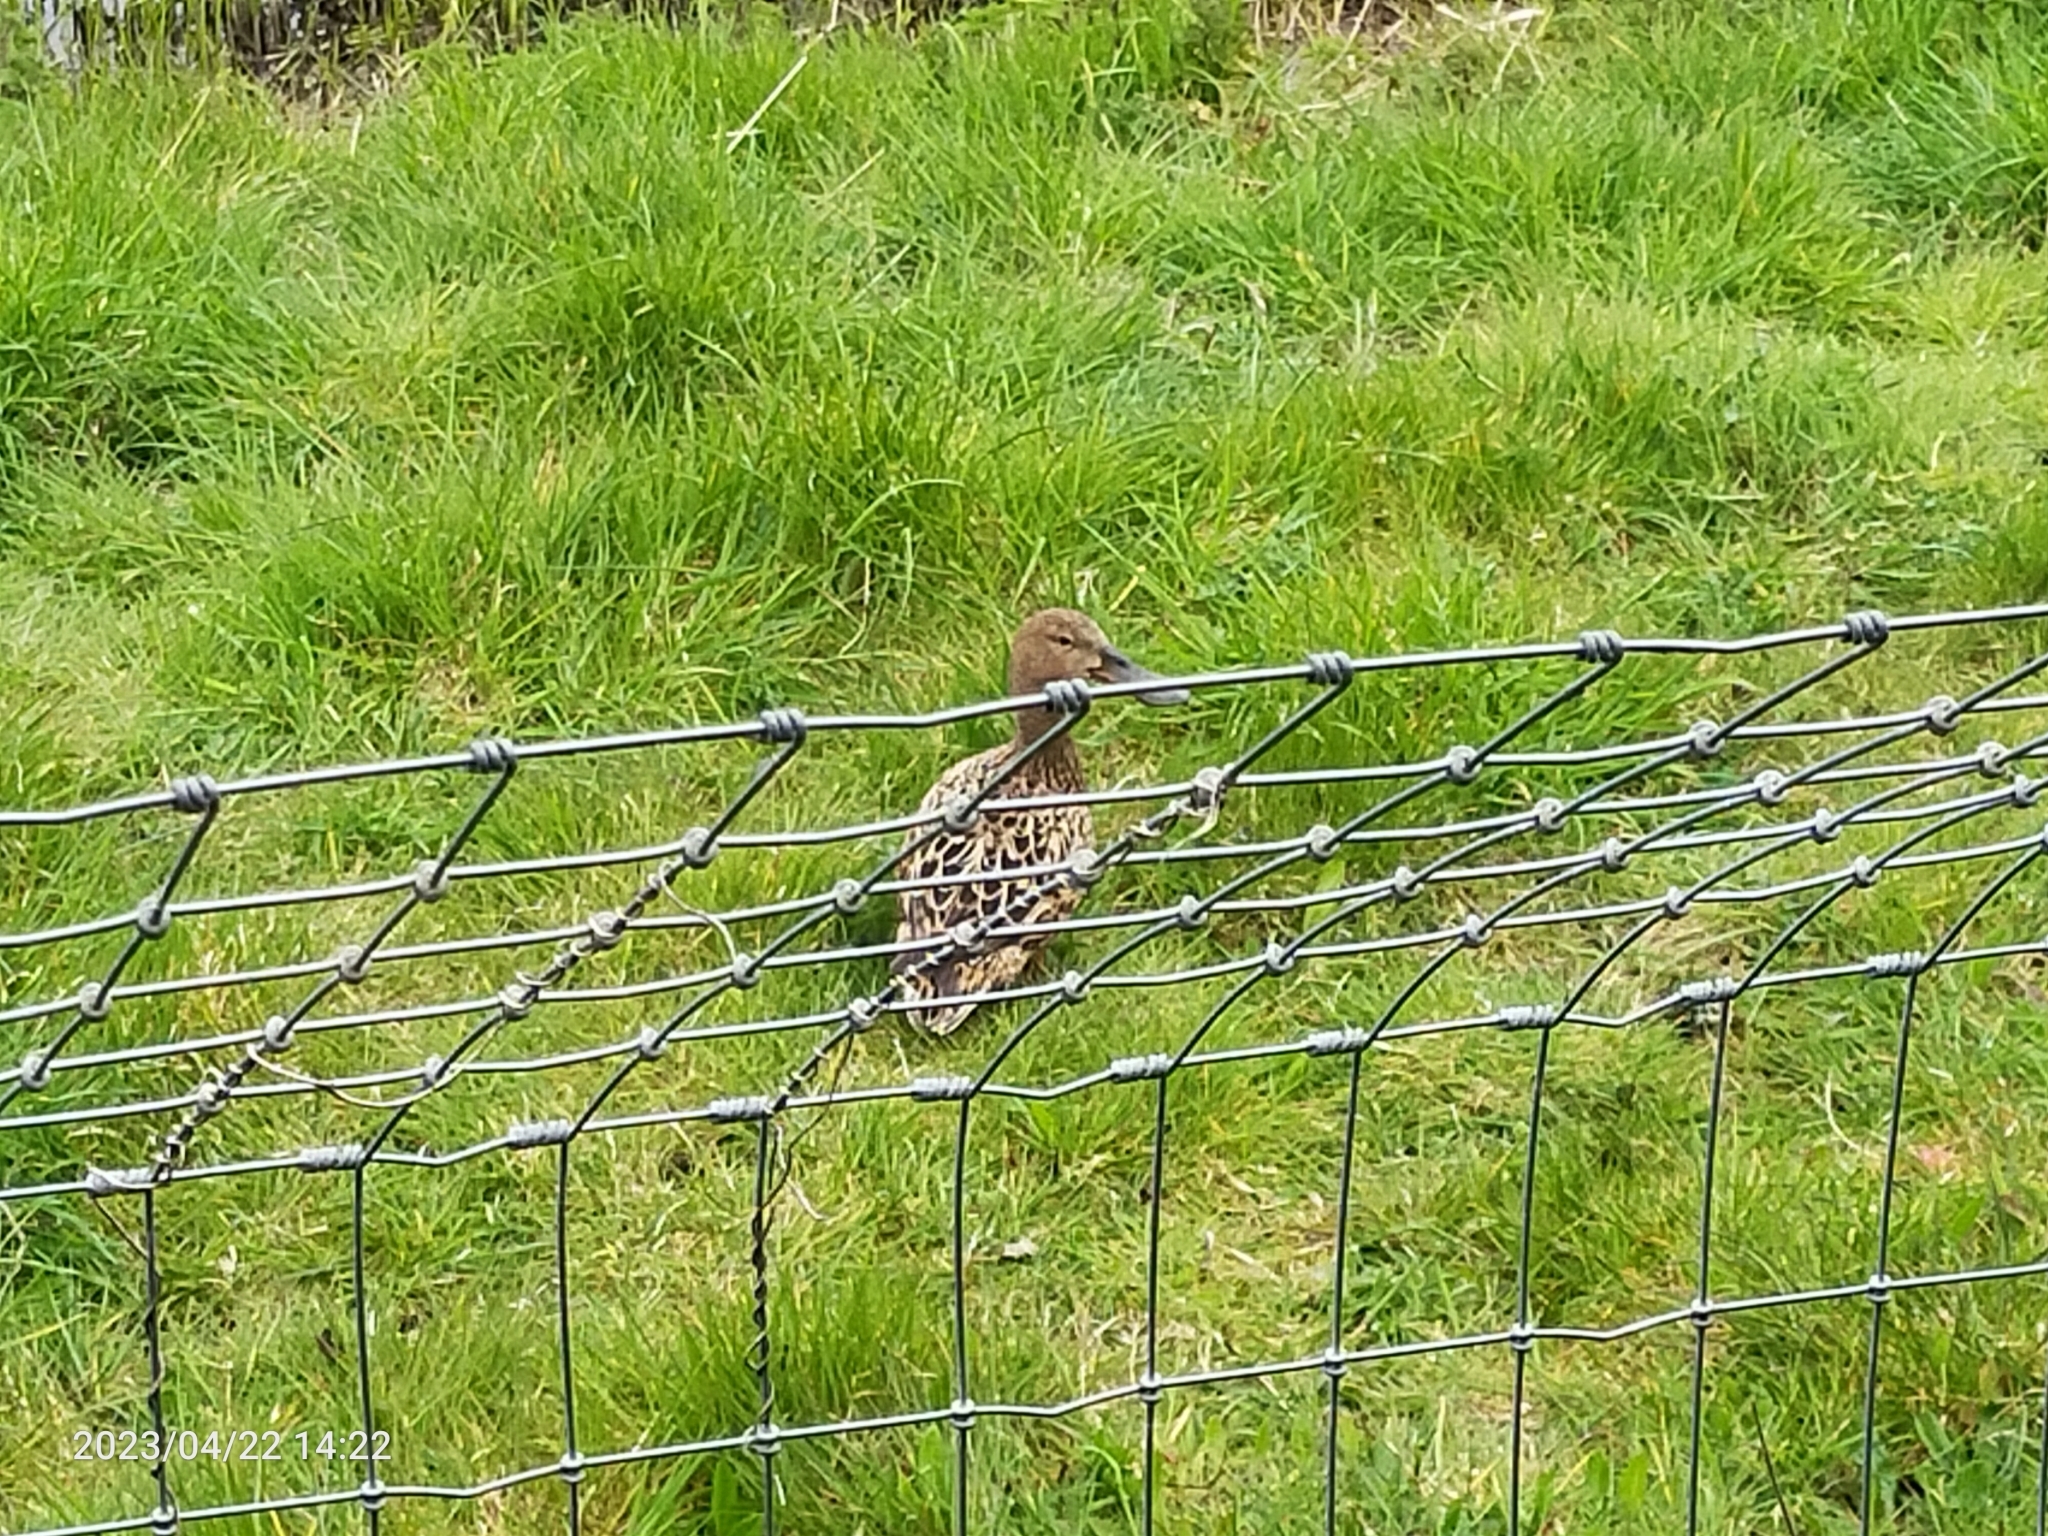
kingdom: Animalia
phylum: Chordata
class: Aves
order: Anseriformes
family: Anatidae
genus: Spatula
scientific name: Spatula clypeata
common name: Northern shoveler
